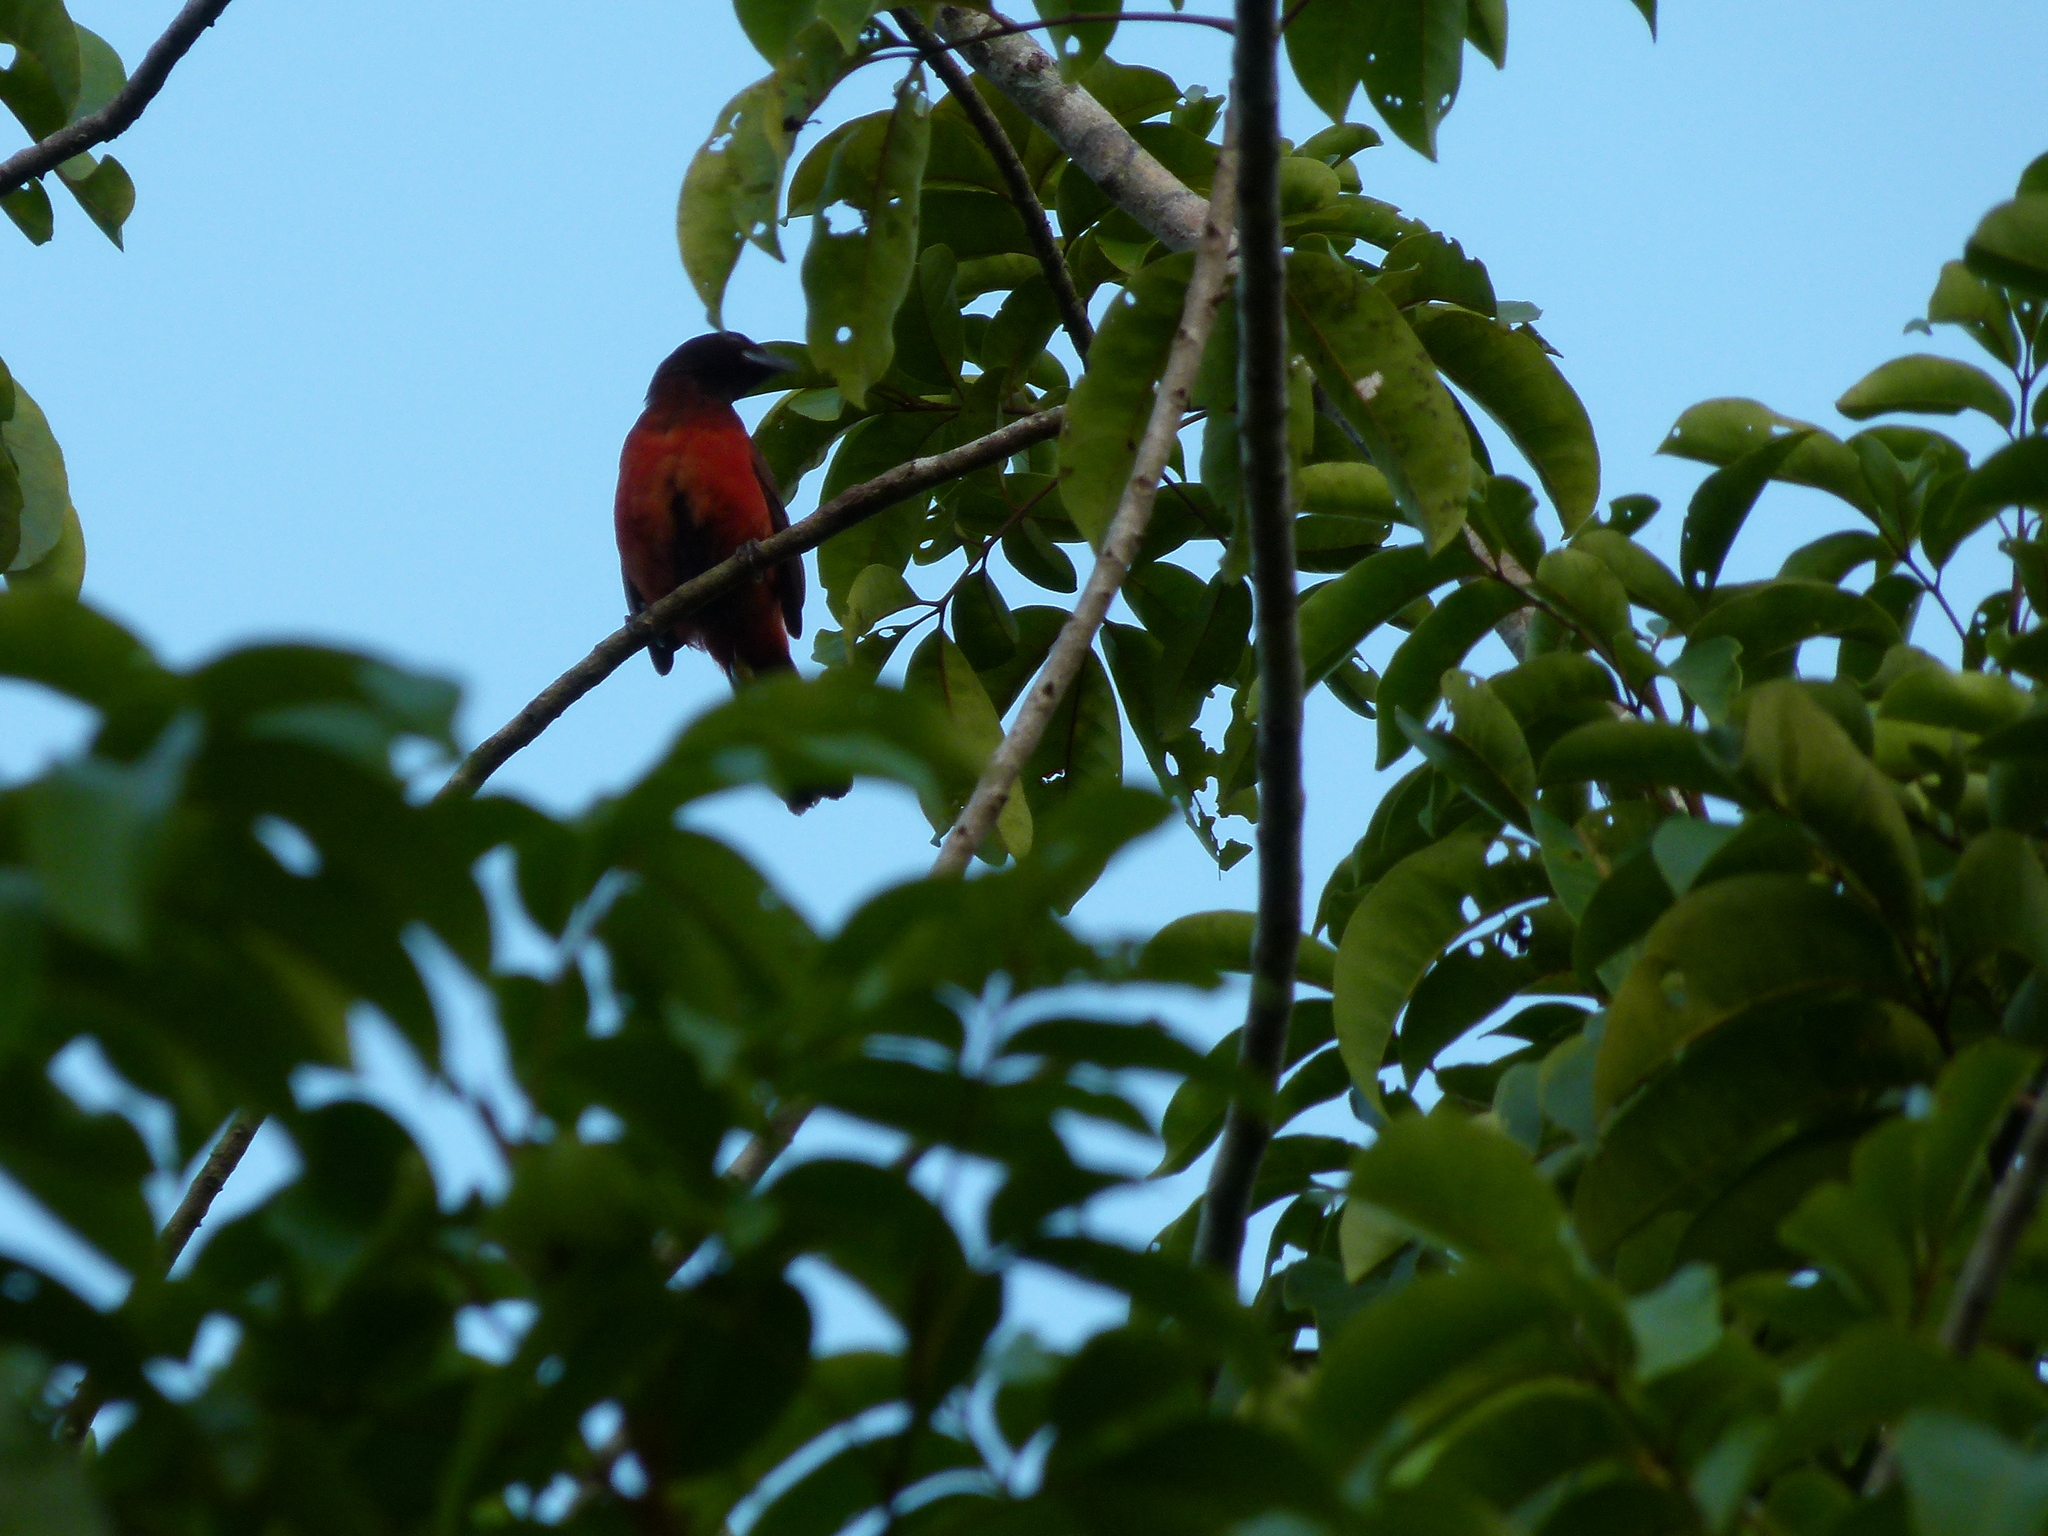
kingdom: Animalia
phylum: Chordata
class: Aves
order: Passeriformes
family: Thraupidae
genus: Ramphocelus
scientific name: Ramphocelus dimidiatus
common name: Crimson-backed tanager
